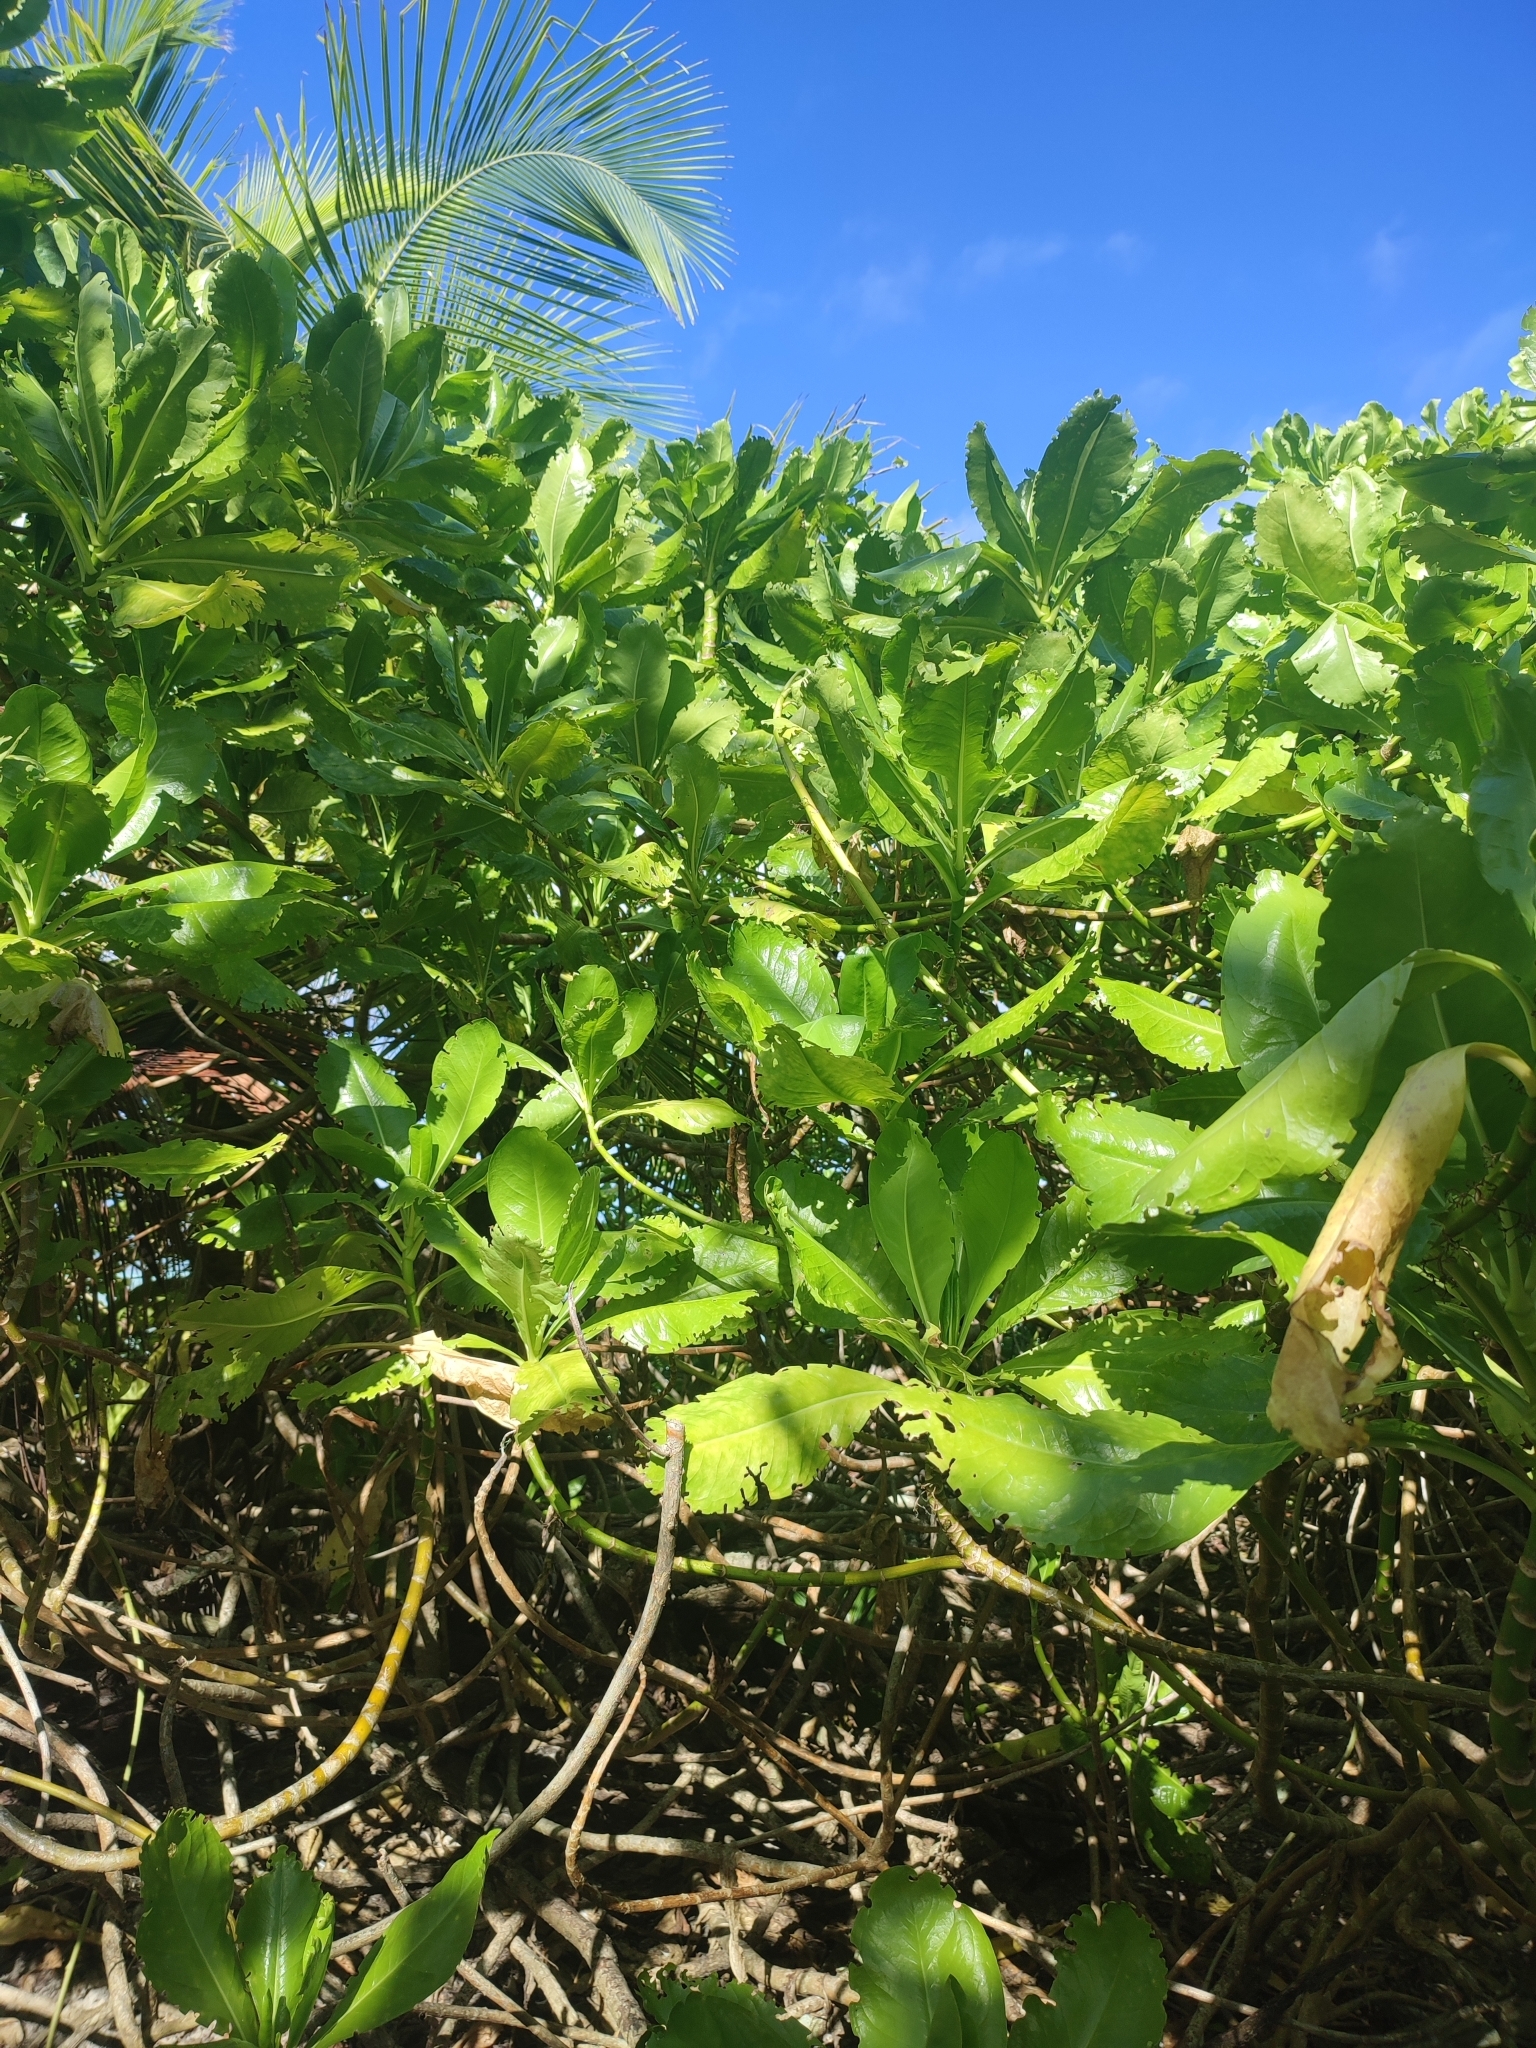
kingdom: Plantae
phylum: Tracheophyta
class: Magnoliopsida
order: Asterales
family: Goodeniaceae
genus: Scaevola
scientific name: Scaevola taccada
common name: Sea lettucetree
